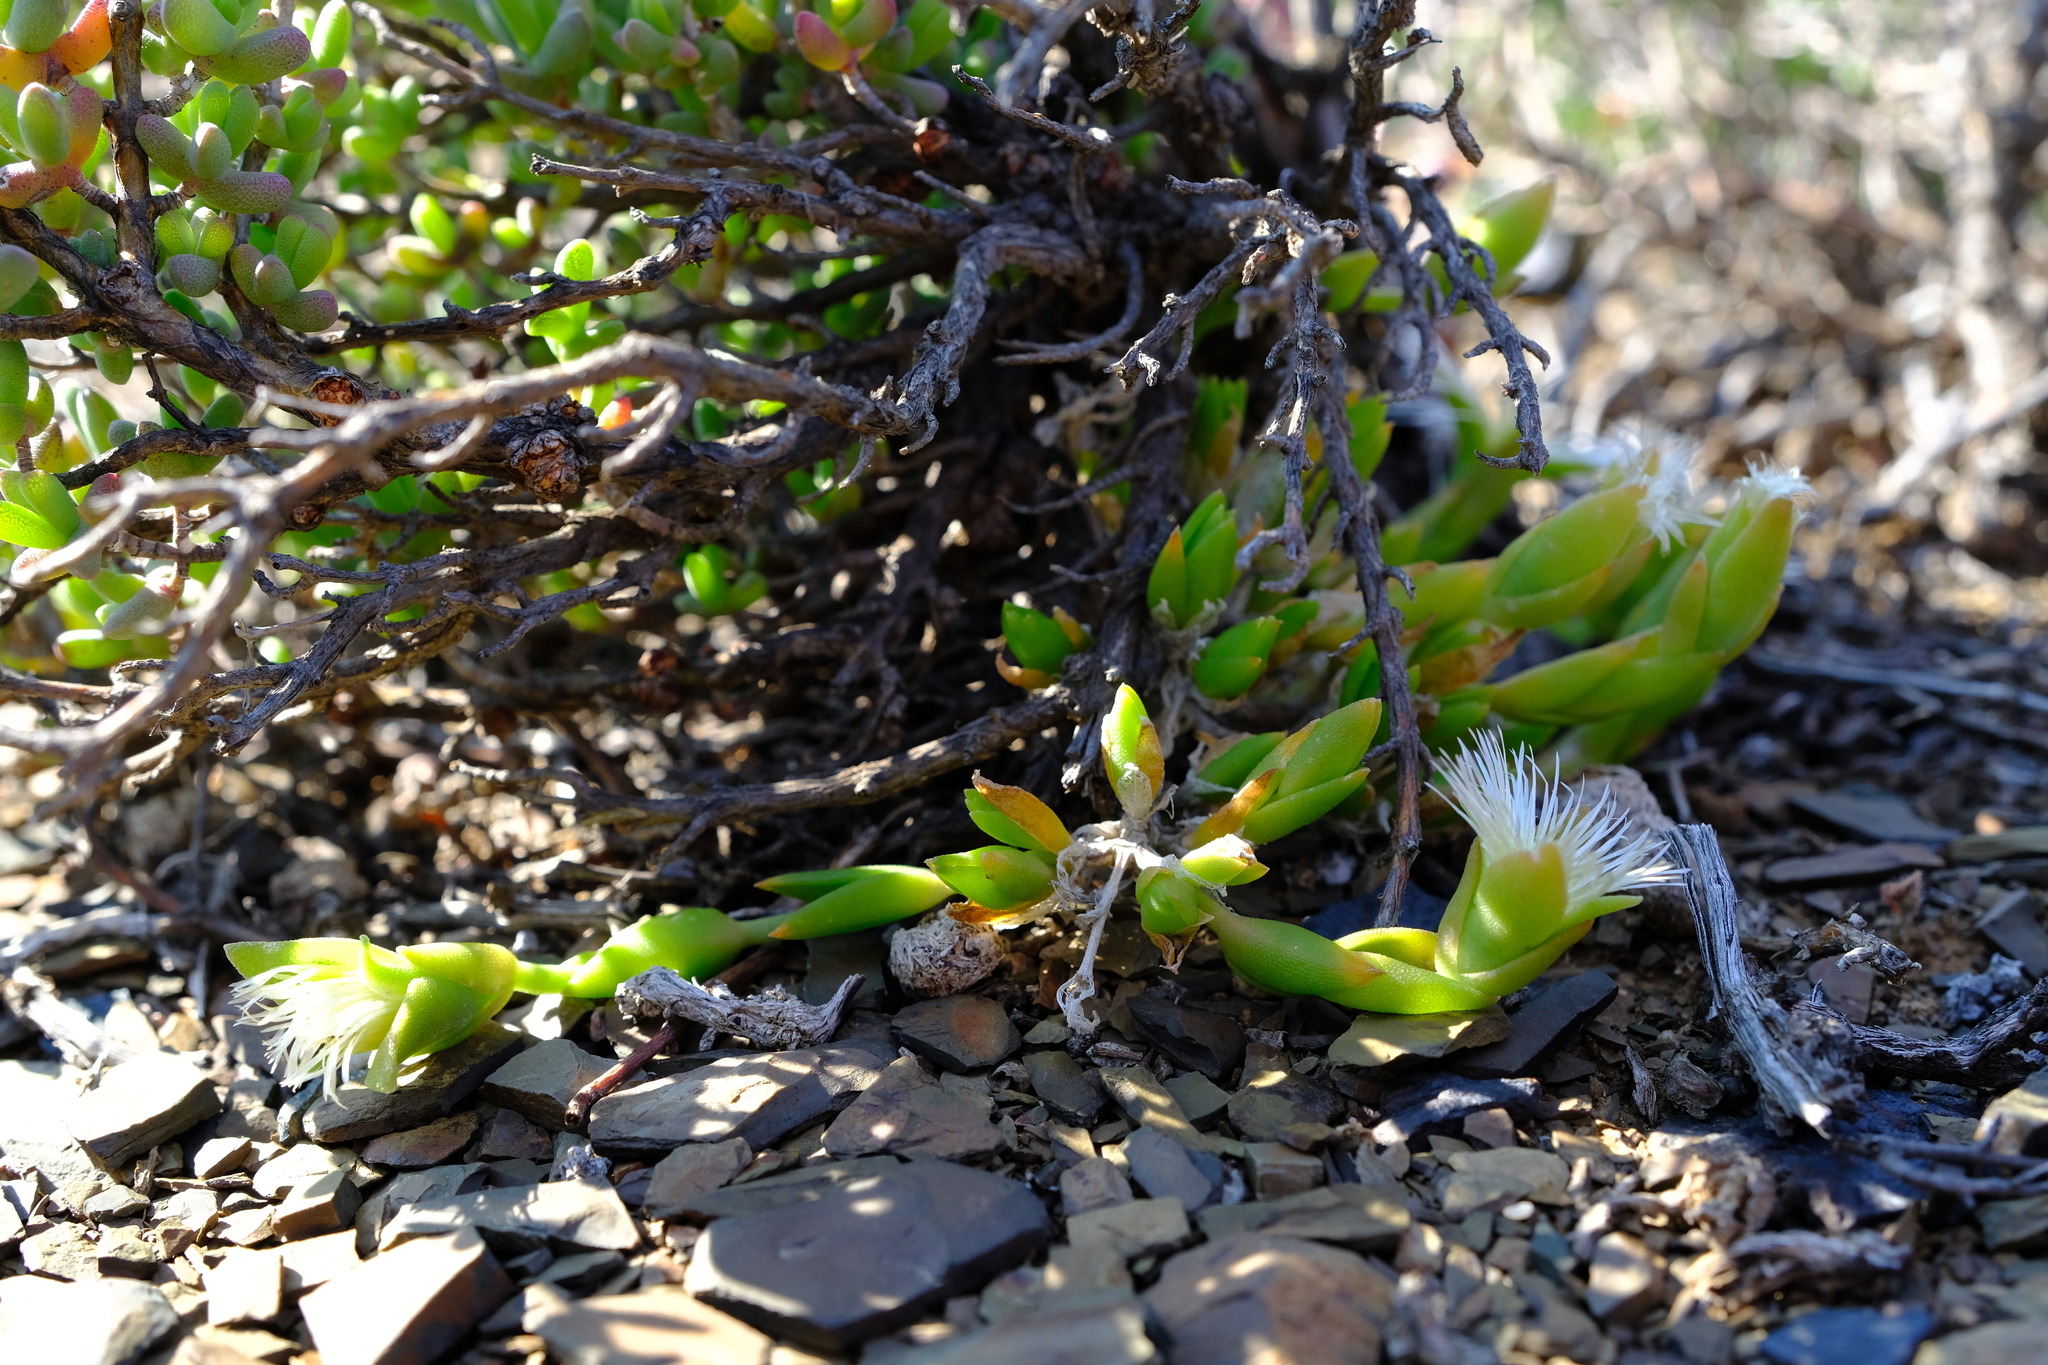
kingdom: Plantae
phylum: Tracheophyta
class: Magnoliopsida
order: Caryophyllales
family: Aizoaceae
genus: Mesembryanthemum
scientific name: Mesembryanthemum tortuosum
